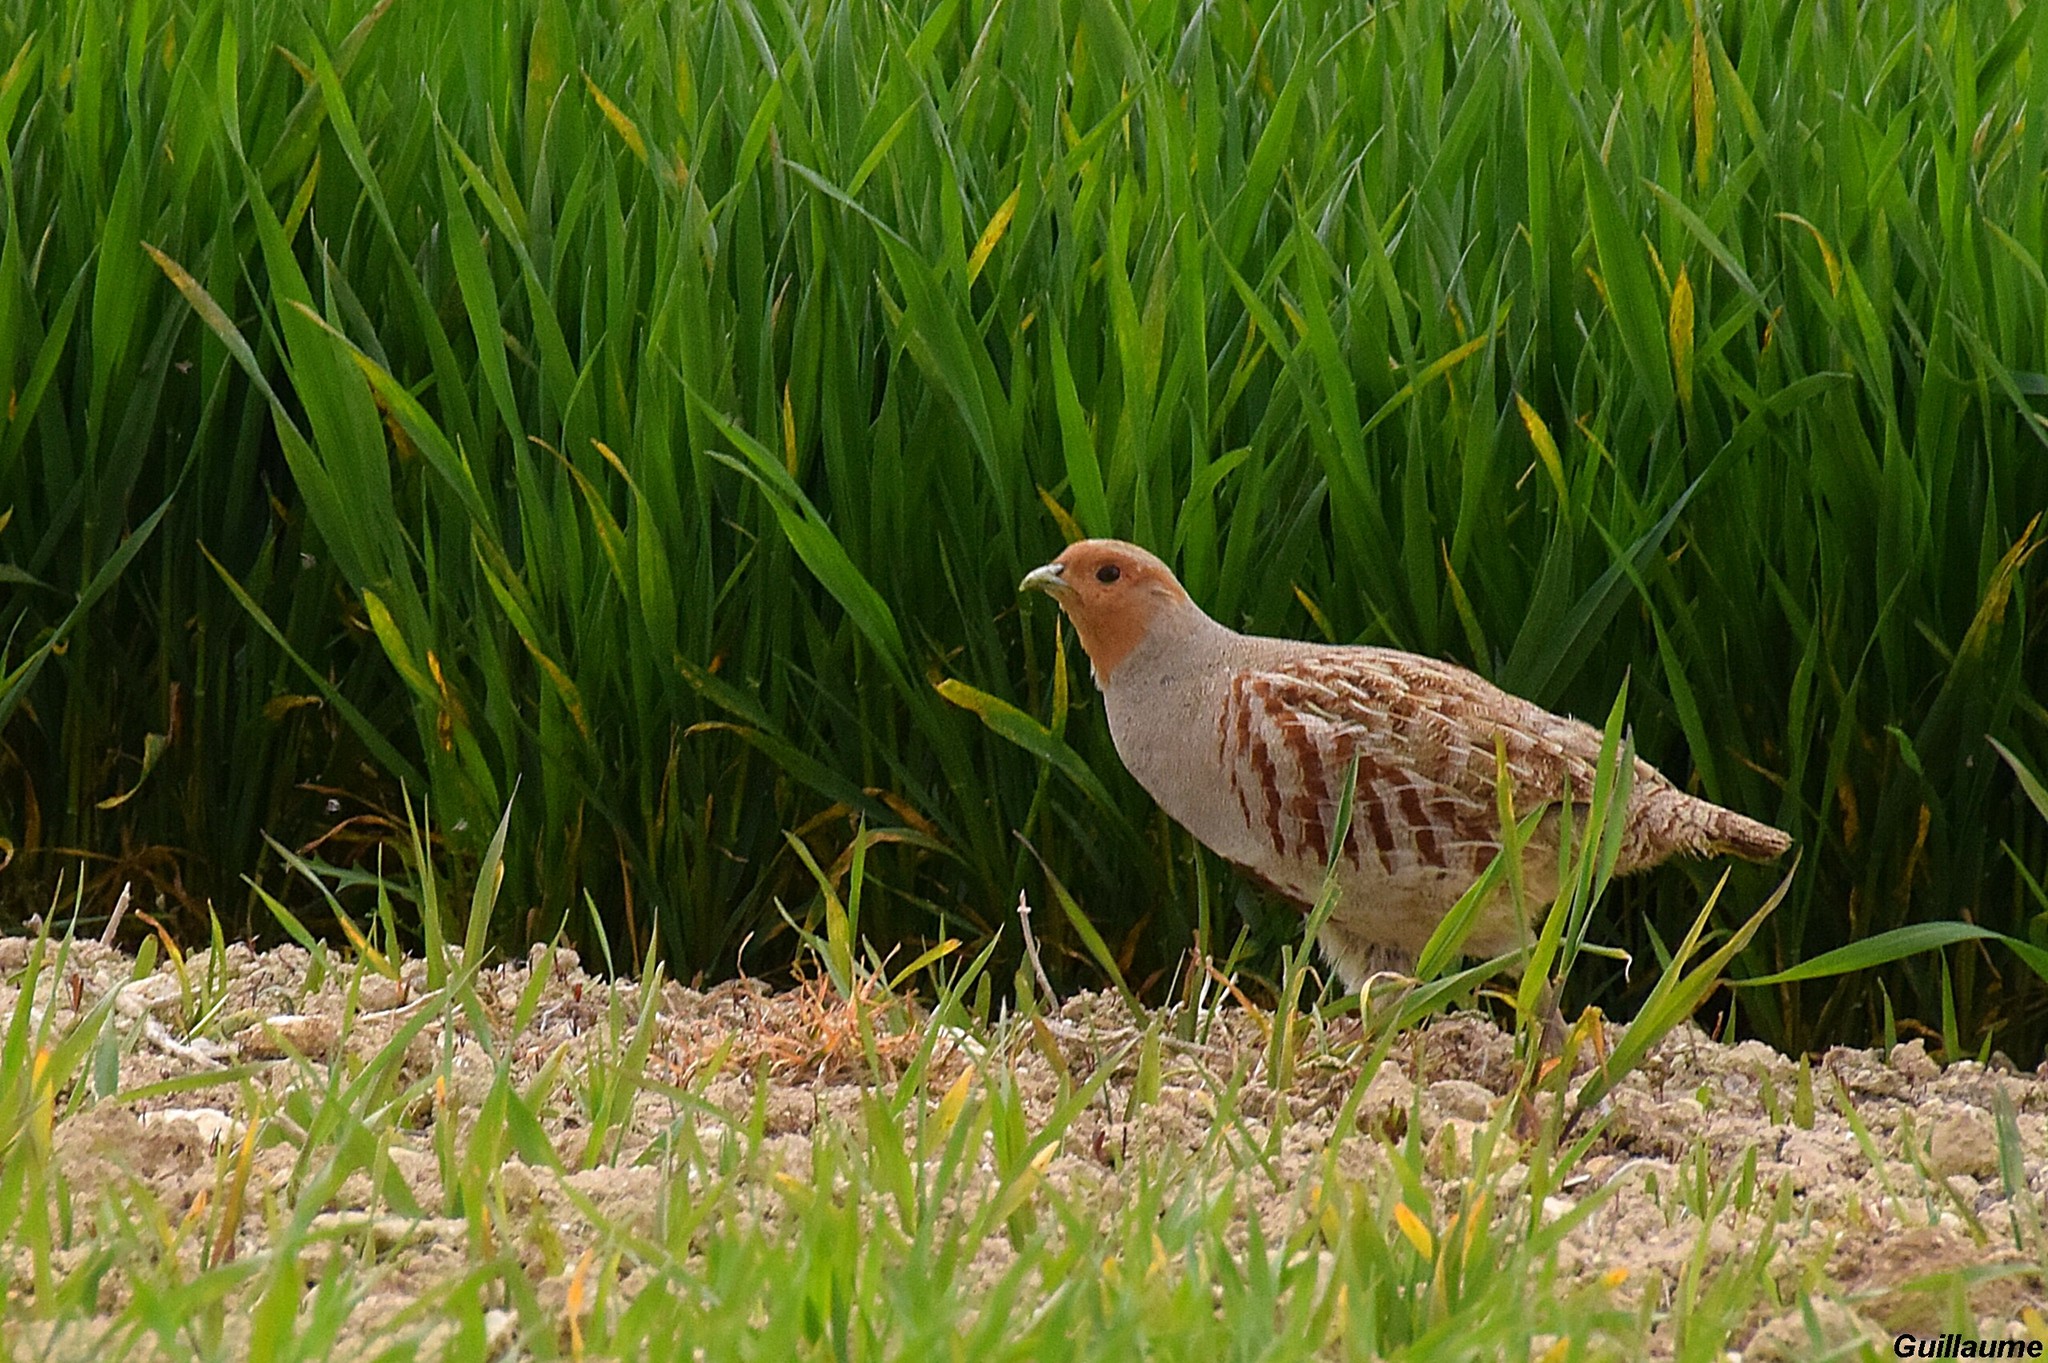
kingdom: Animalia
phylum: Chordata
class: Aves
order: Galliformes
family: Phasianidae
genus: Perdix
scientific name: Perdix perdix
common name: Grey partridge
